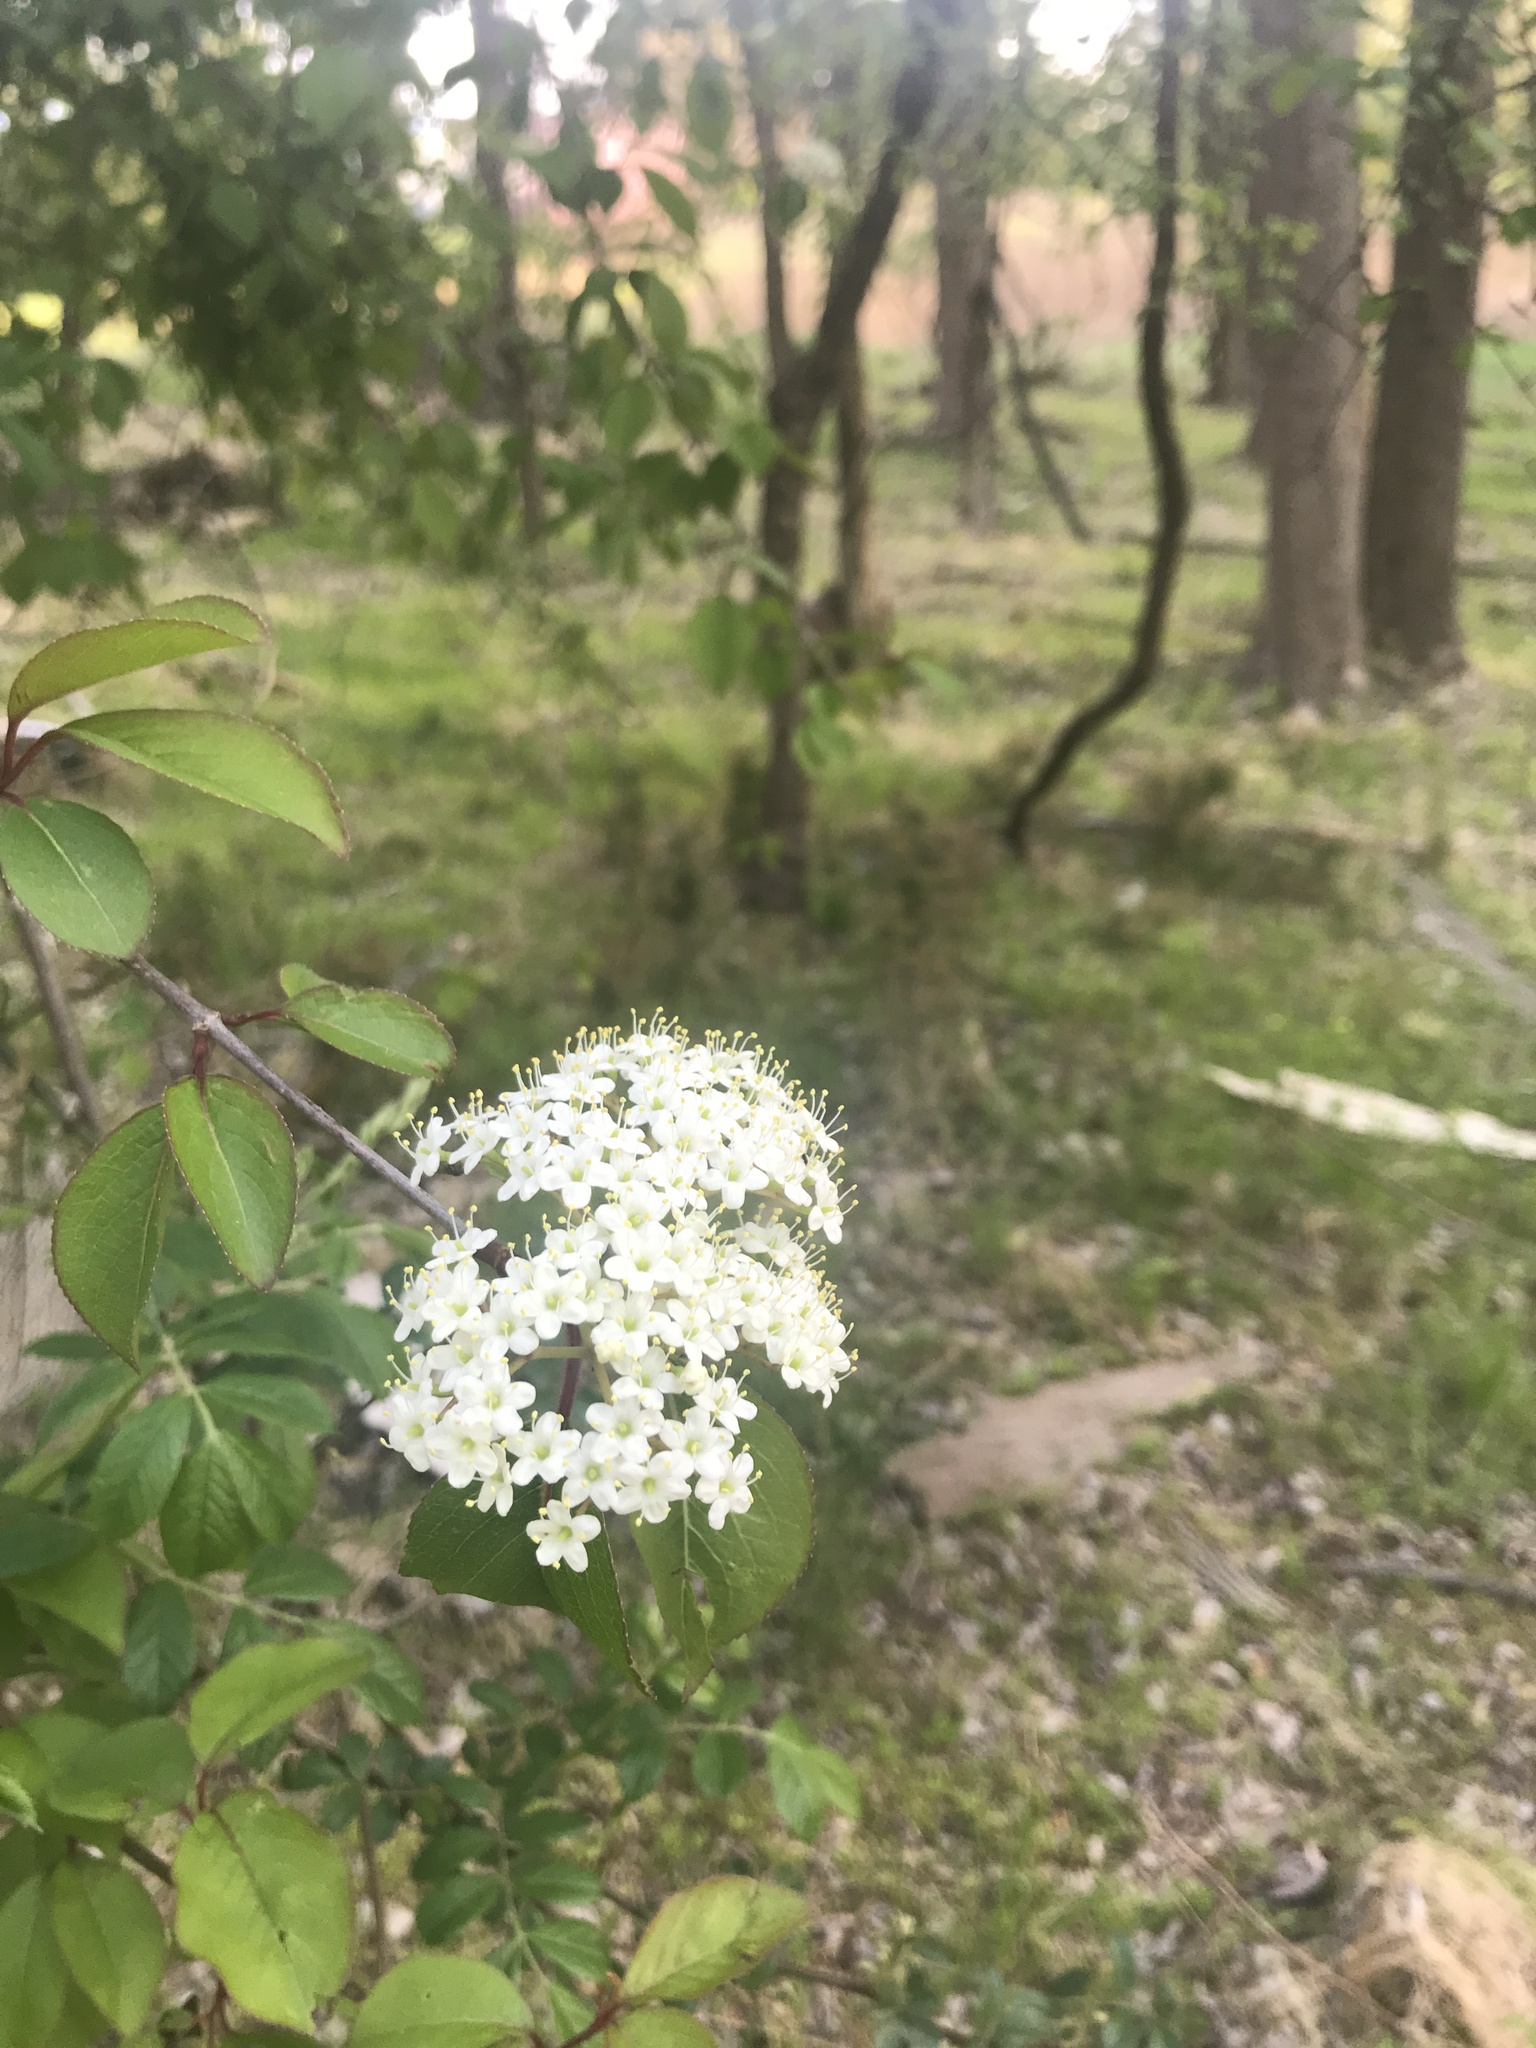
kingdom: Plantae
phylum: Tracheophyta
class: Magnoliopsida
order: Dipsacales
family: Viburnaceae
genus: Viburnum
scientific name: Viburnum prunifolium
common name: Black haw
